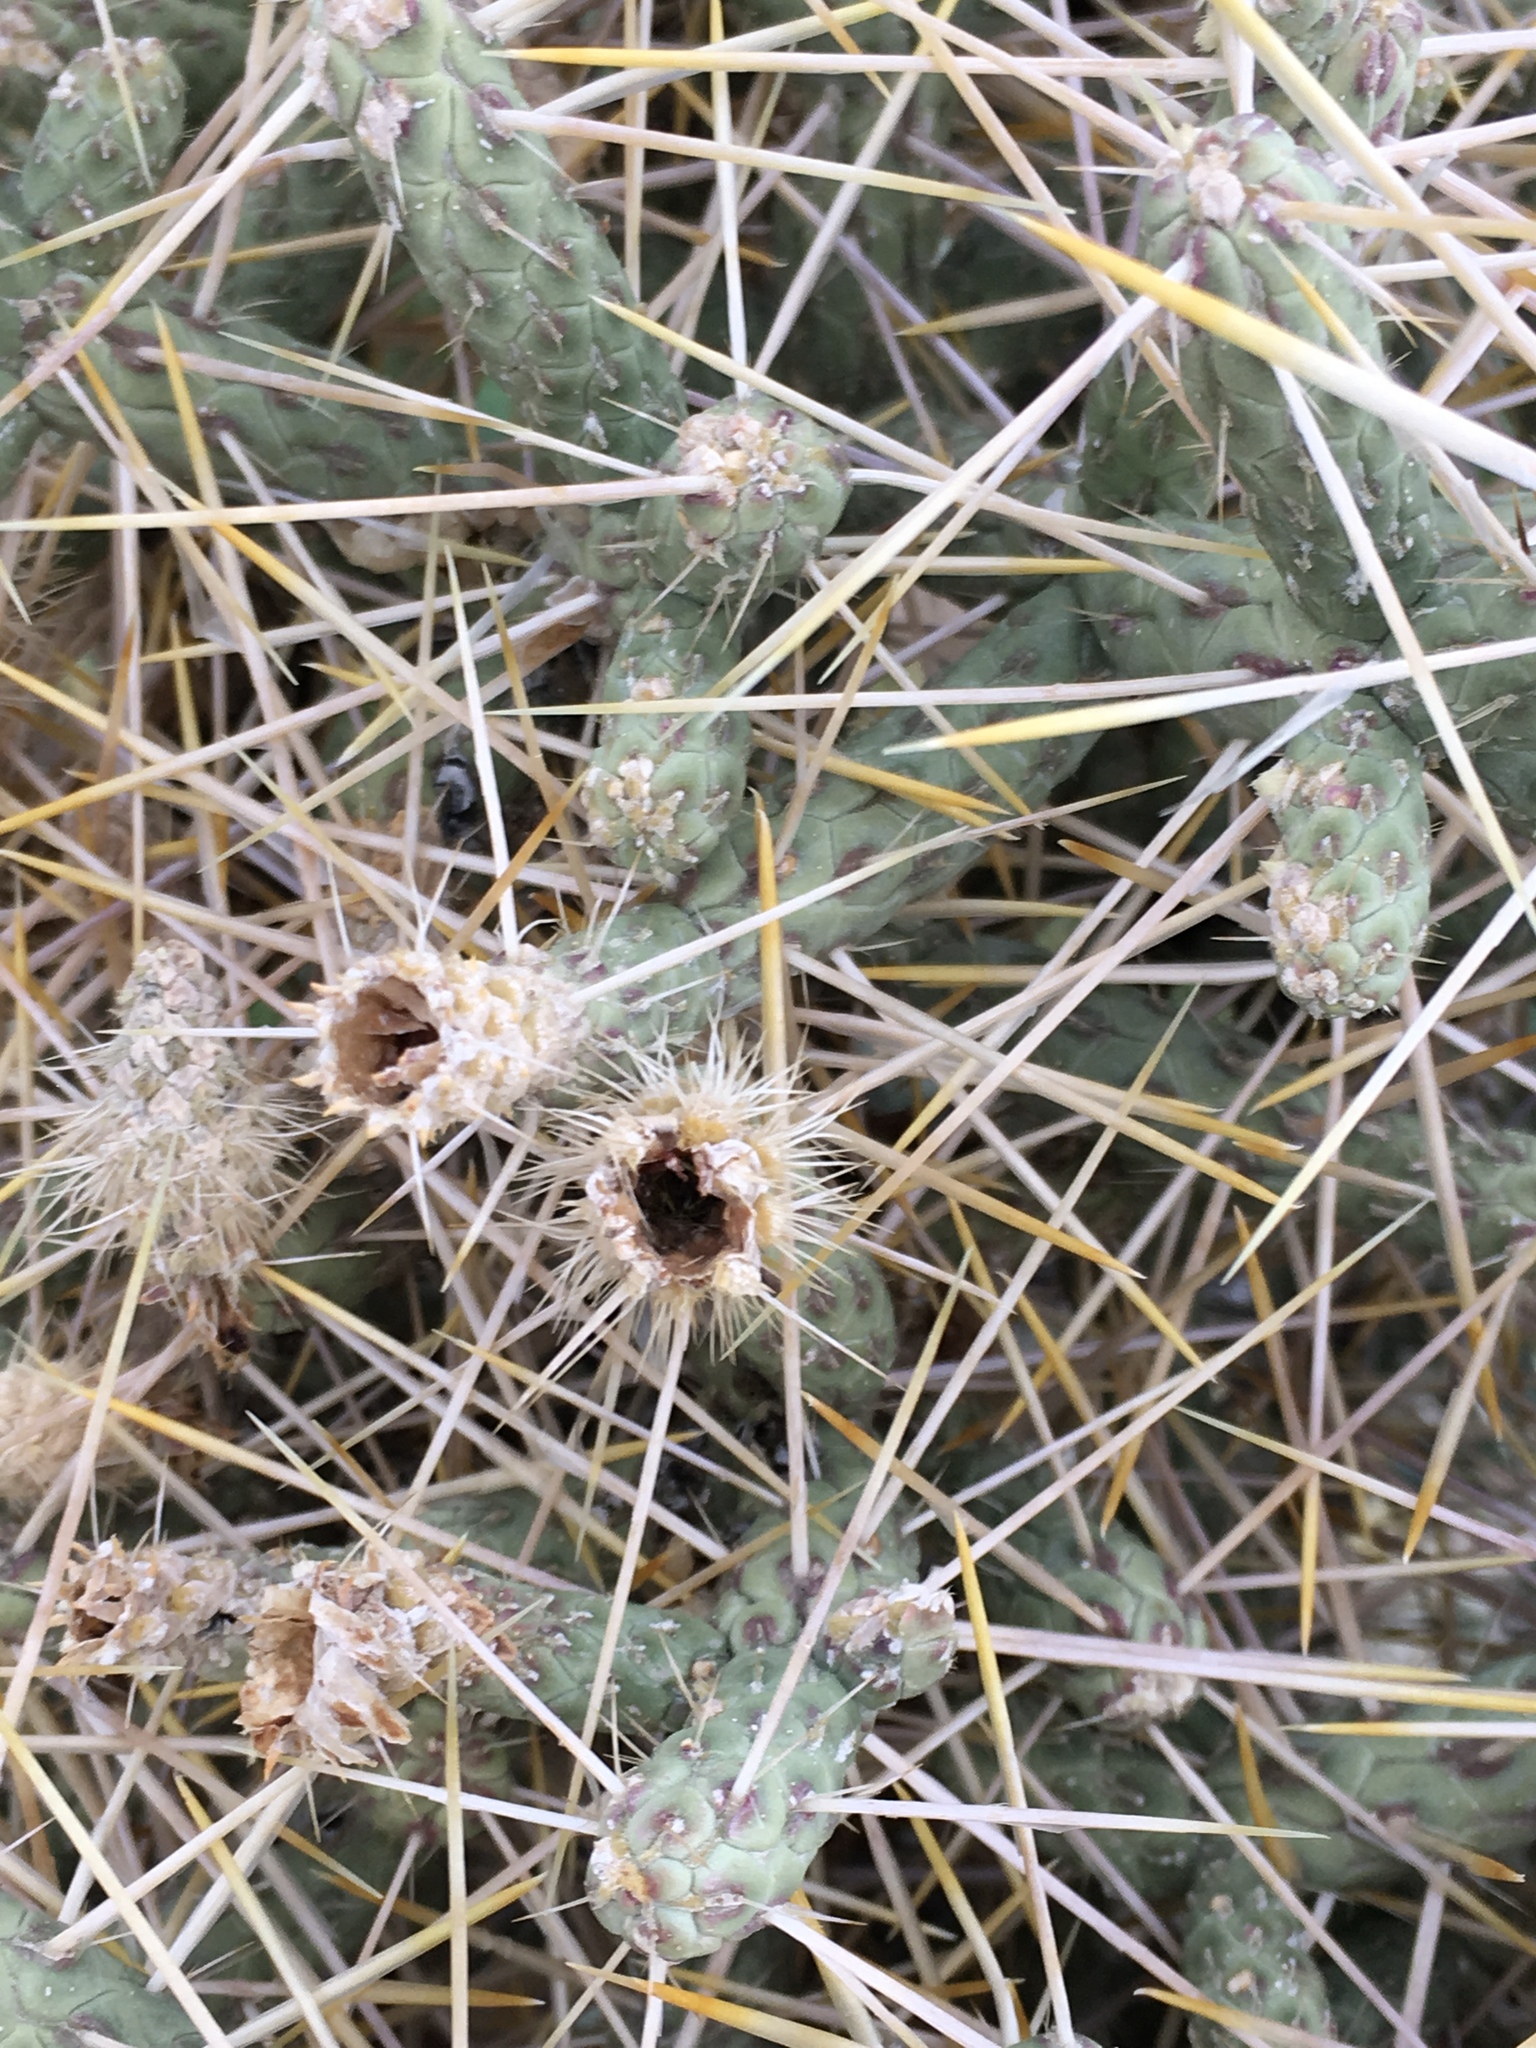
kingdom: Plantae
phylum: Tracheophyta
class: Magnoliopsida
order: Caryophyllales
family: Cactaceae
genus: Cylindropuntia
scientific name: Cylindropuntia ramosissima
